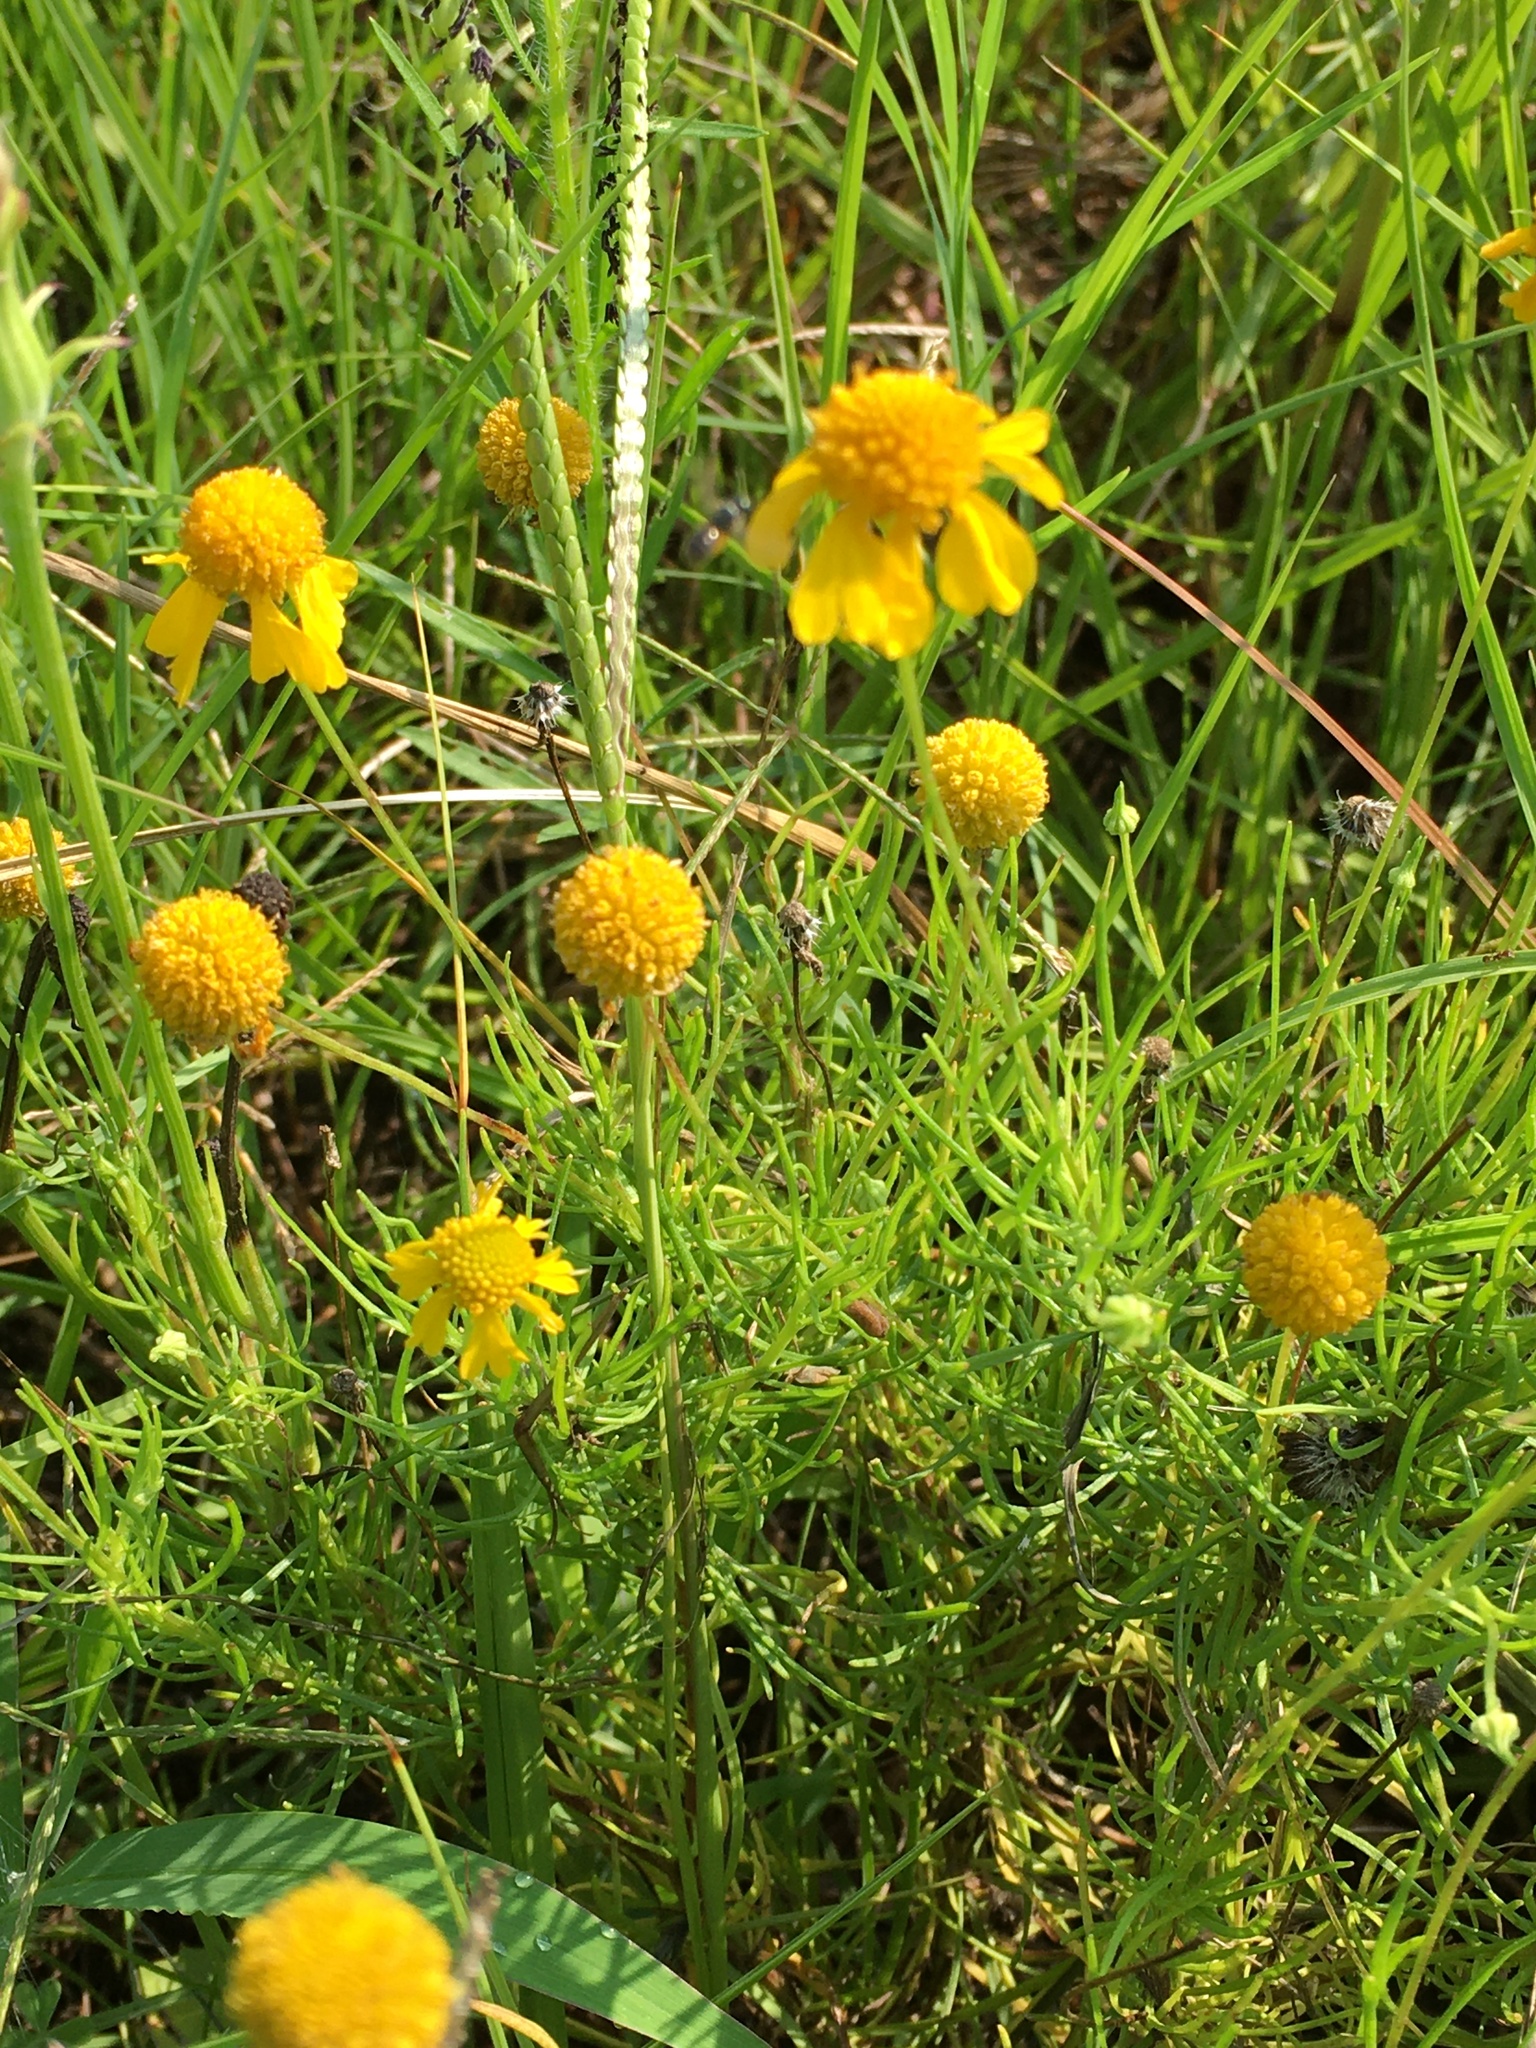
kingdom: Plantae
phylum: Tracheophyta
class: Magnoliopsida
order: Asterales
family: Asteraceae
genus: Helenium
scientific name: Helenium amarum
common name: Bitter sneezeweed
